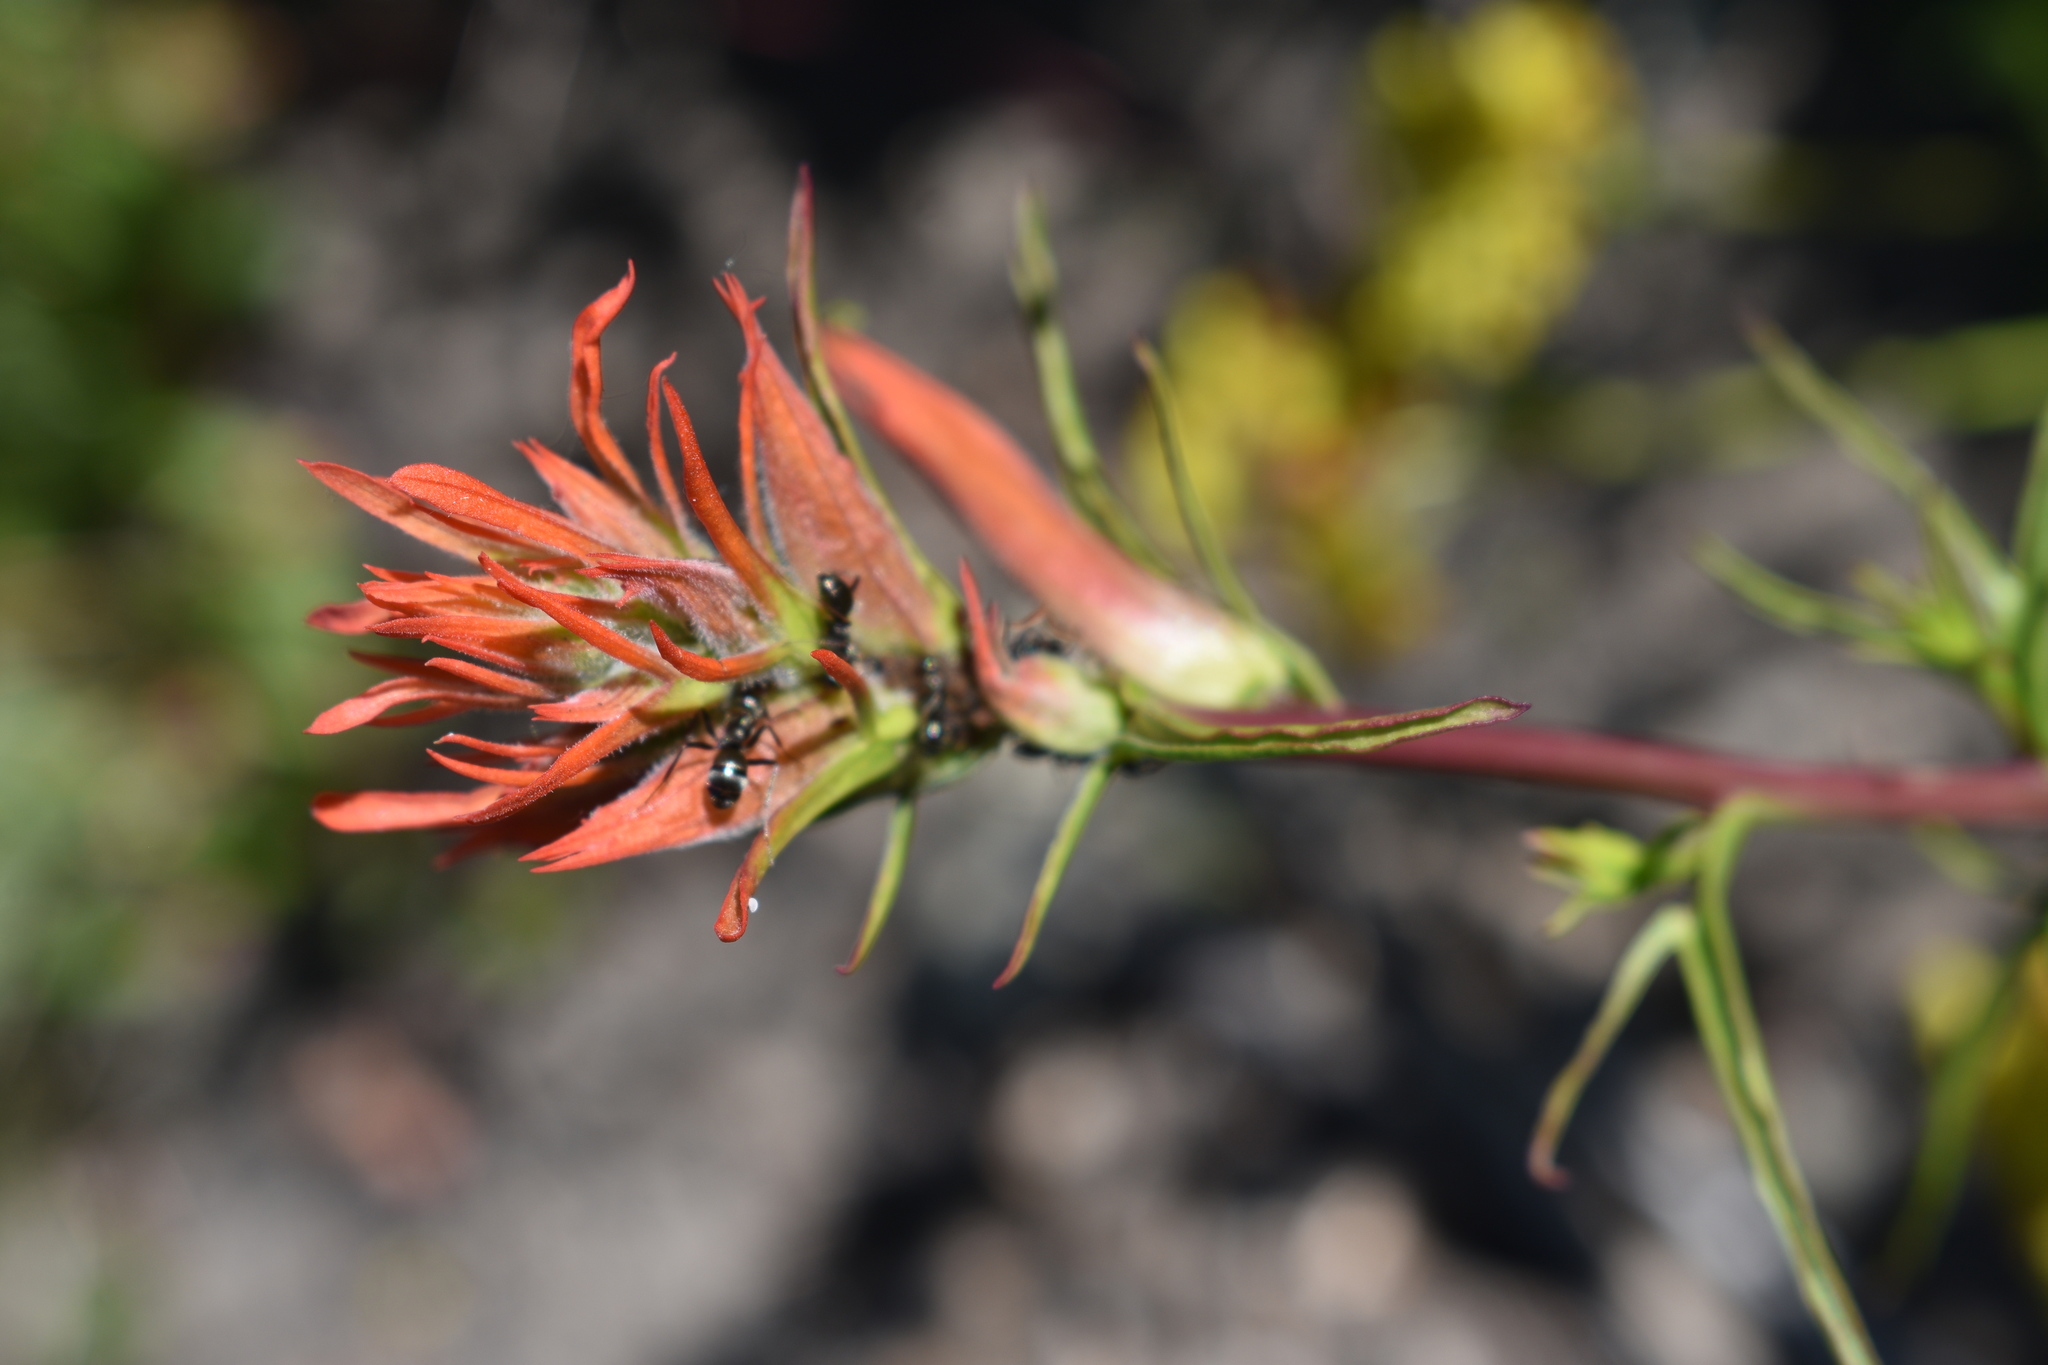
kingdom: Plantae
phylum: Tracheophyta
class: Magnoliopsida
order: Lamiales
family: Orobanchaceae
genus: Castilleja
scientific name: Castilleja linariifolia
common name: Wyoming paintbrush
